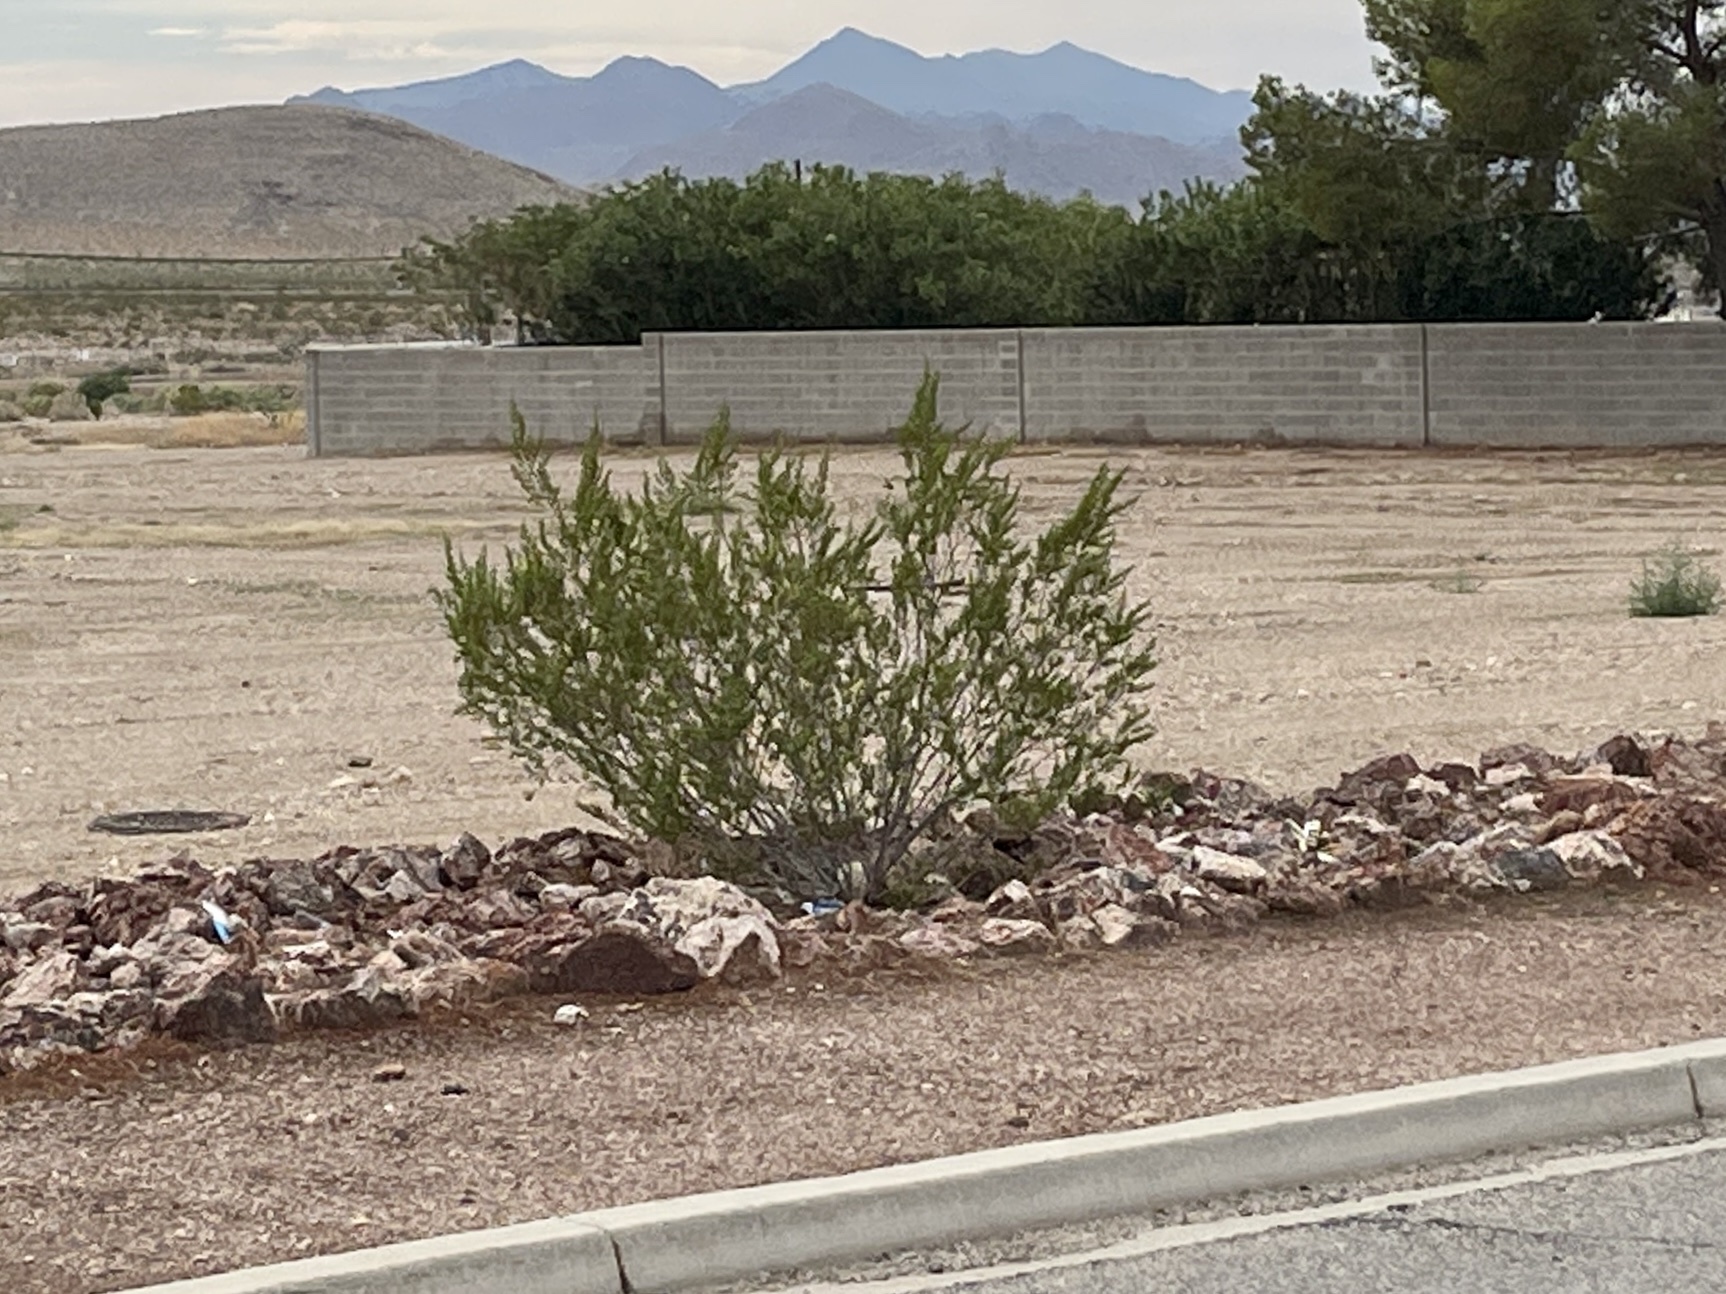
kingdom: Plantae
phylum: Tracheophyta
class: Magnoliopsida
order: Zygophyllales
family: Zygophyllaceae
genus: Larrea
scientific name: Larrea tridentata
